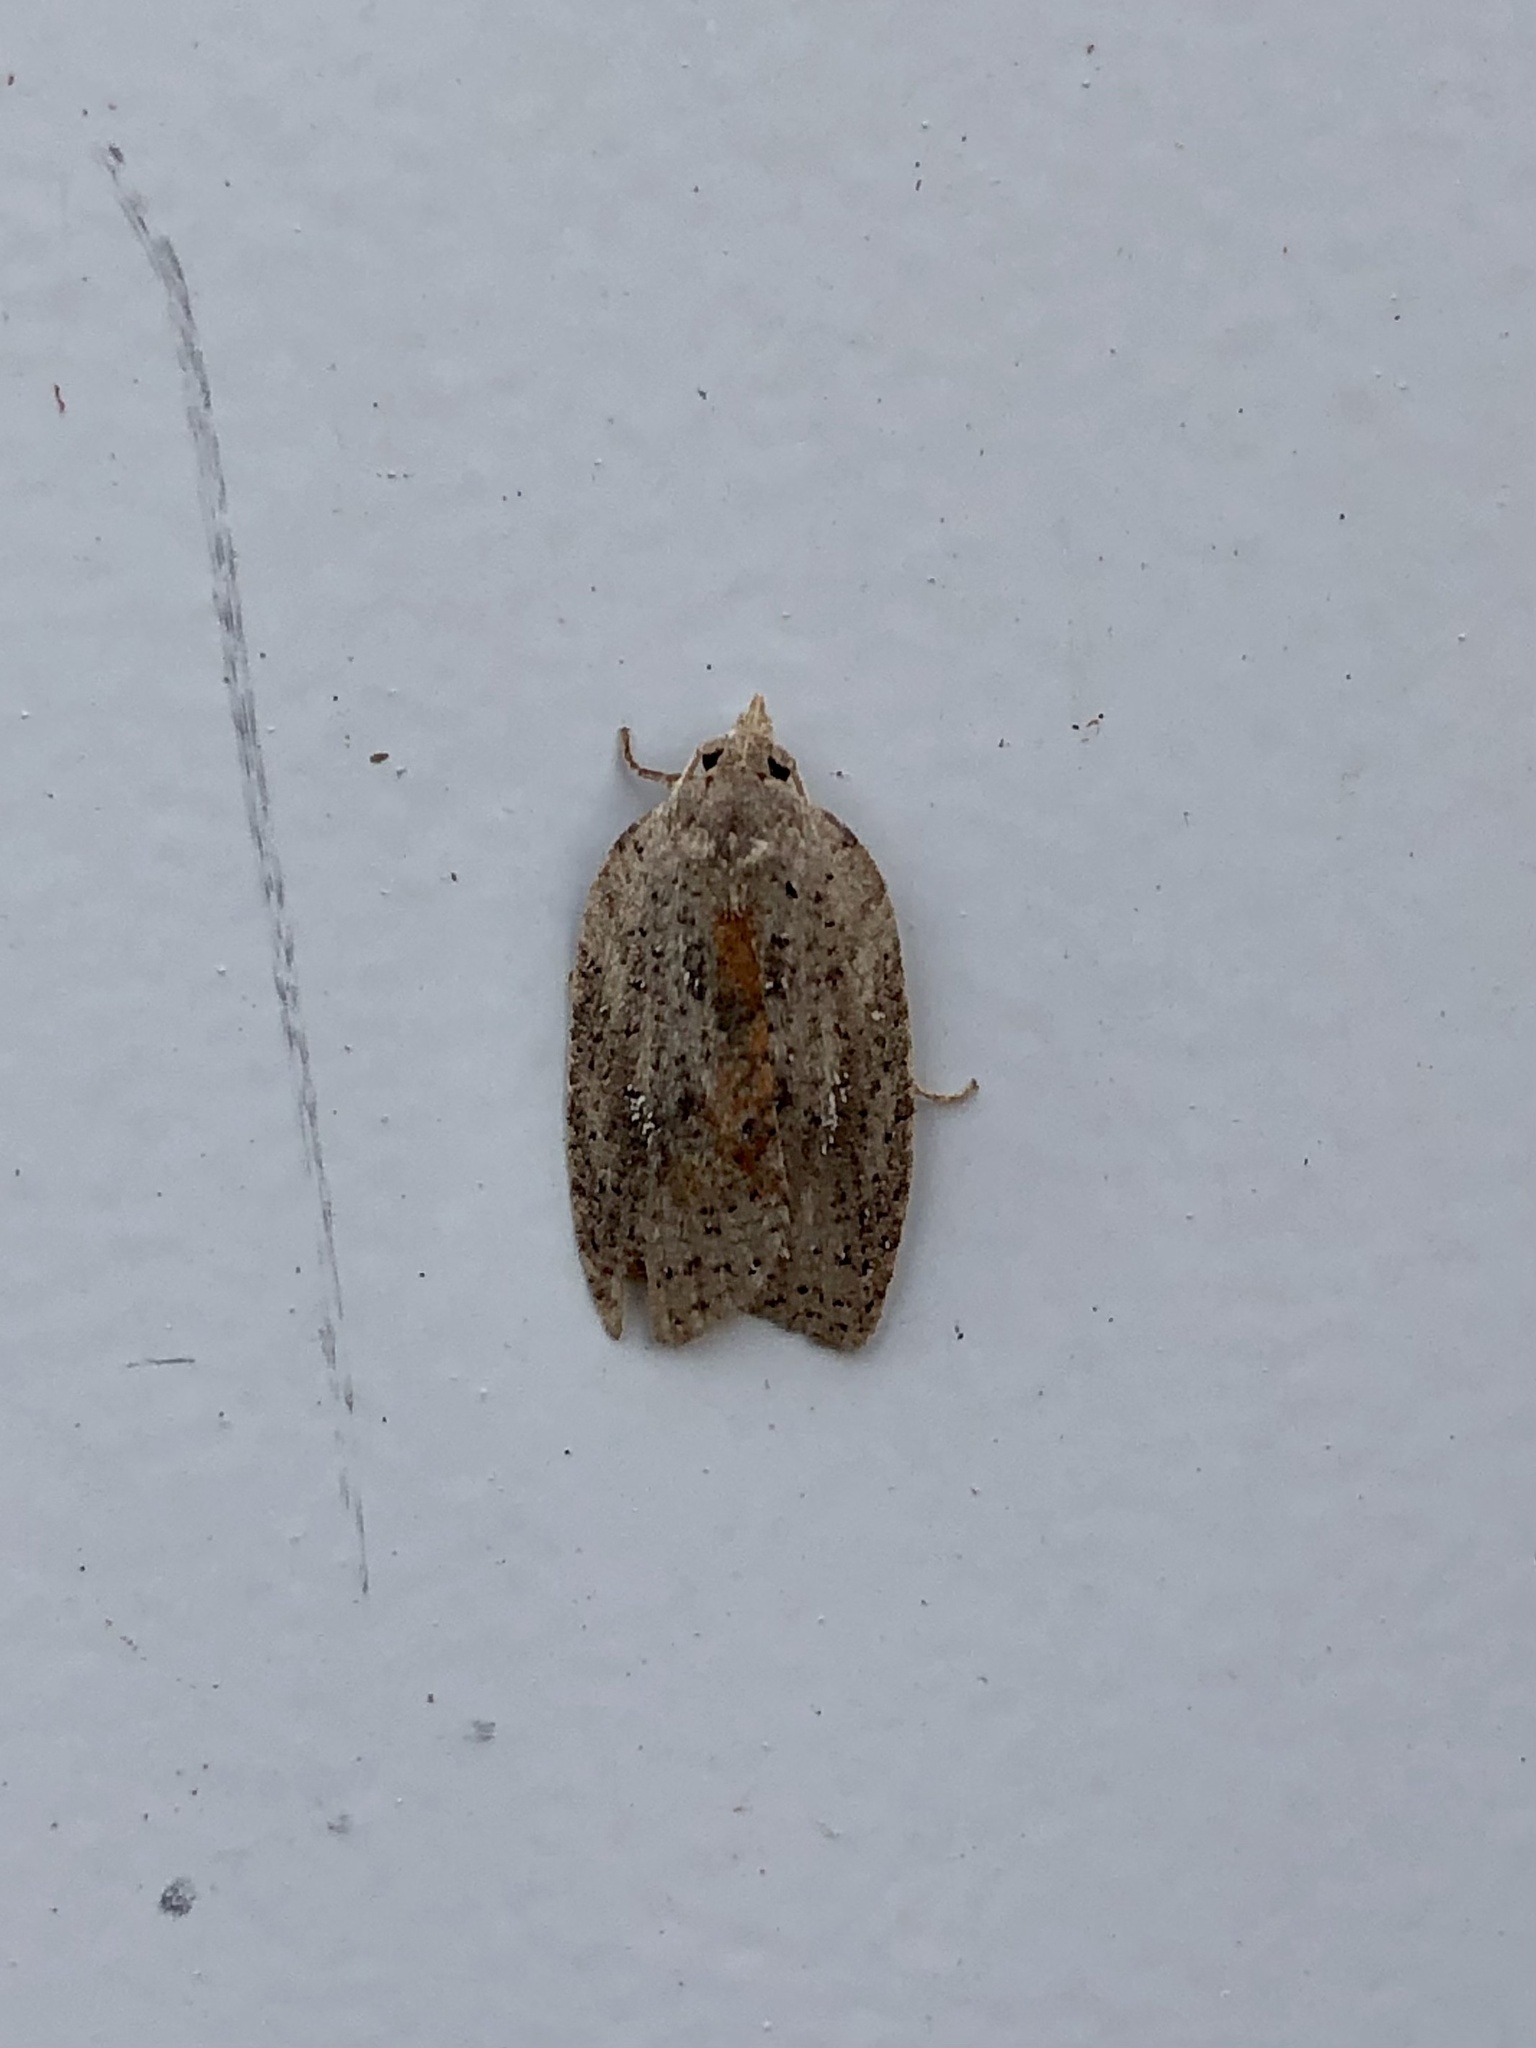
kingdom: Animalia
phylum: Arthropoda
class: Insecta
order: Lepidoptera
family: Tortricidae
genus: Amorbia
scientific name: Amorbia humerosana
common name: White-lined leafroller moth
